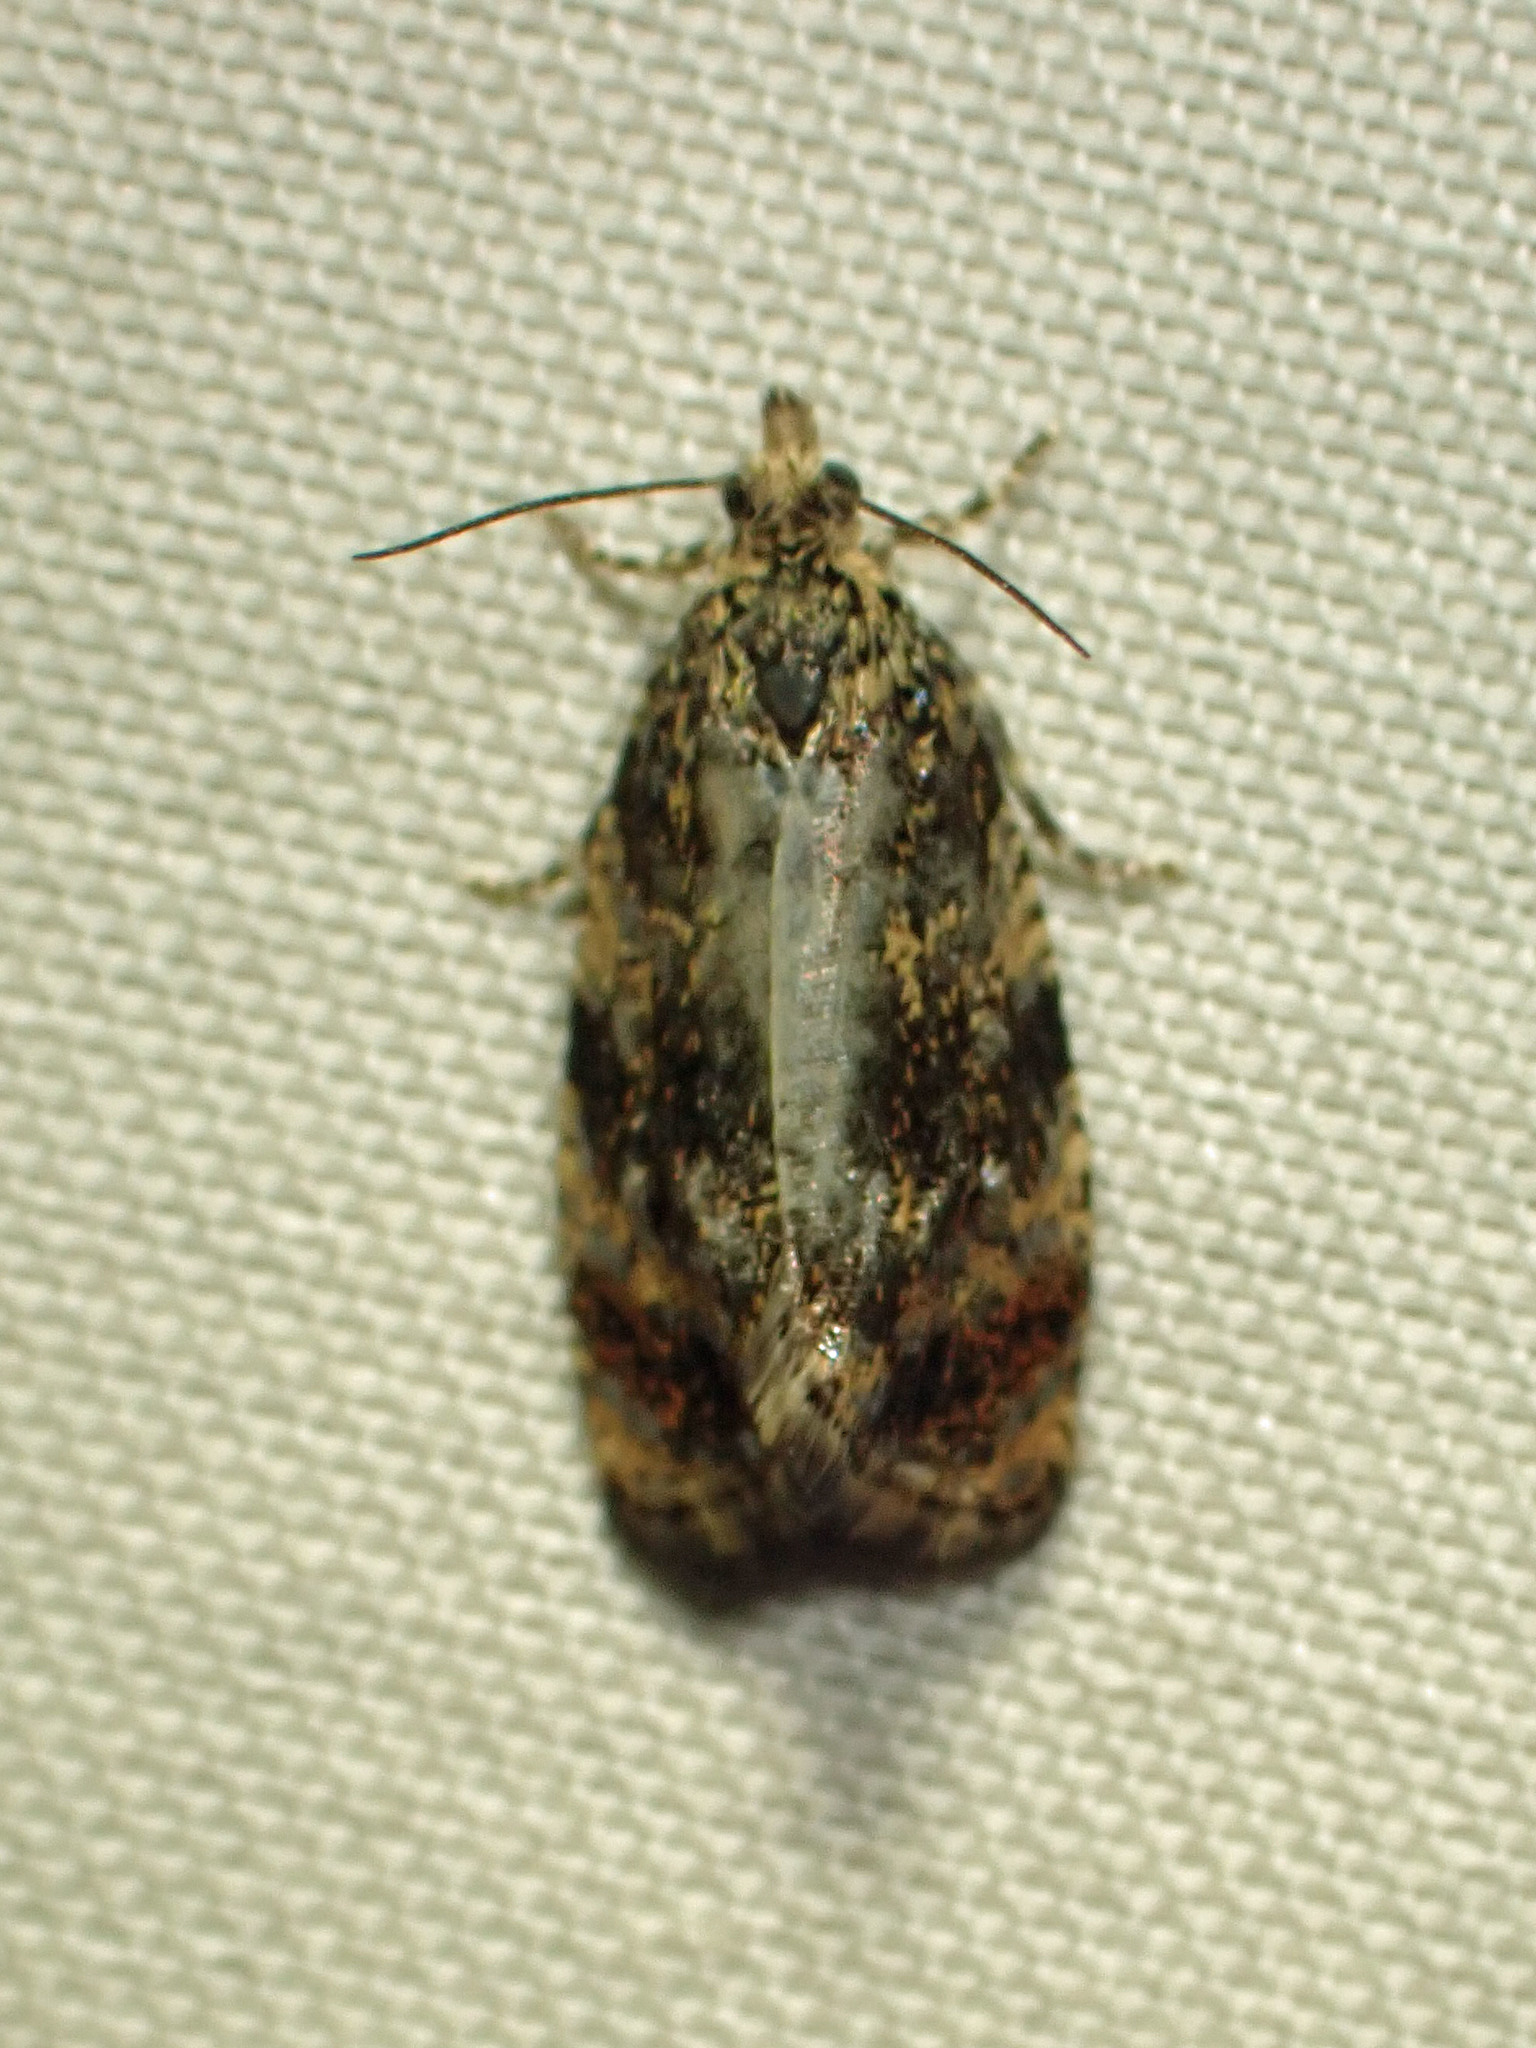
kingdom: Animalia
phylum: Arthropoda
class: Insecta
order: Lepidoptera
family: Tortricidae
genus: Olethreutes
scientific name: Olethreutes astrologana
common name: Astronomer moth
